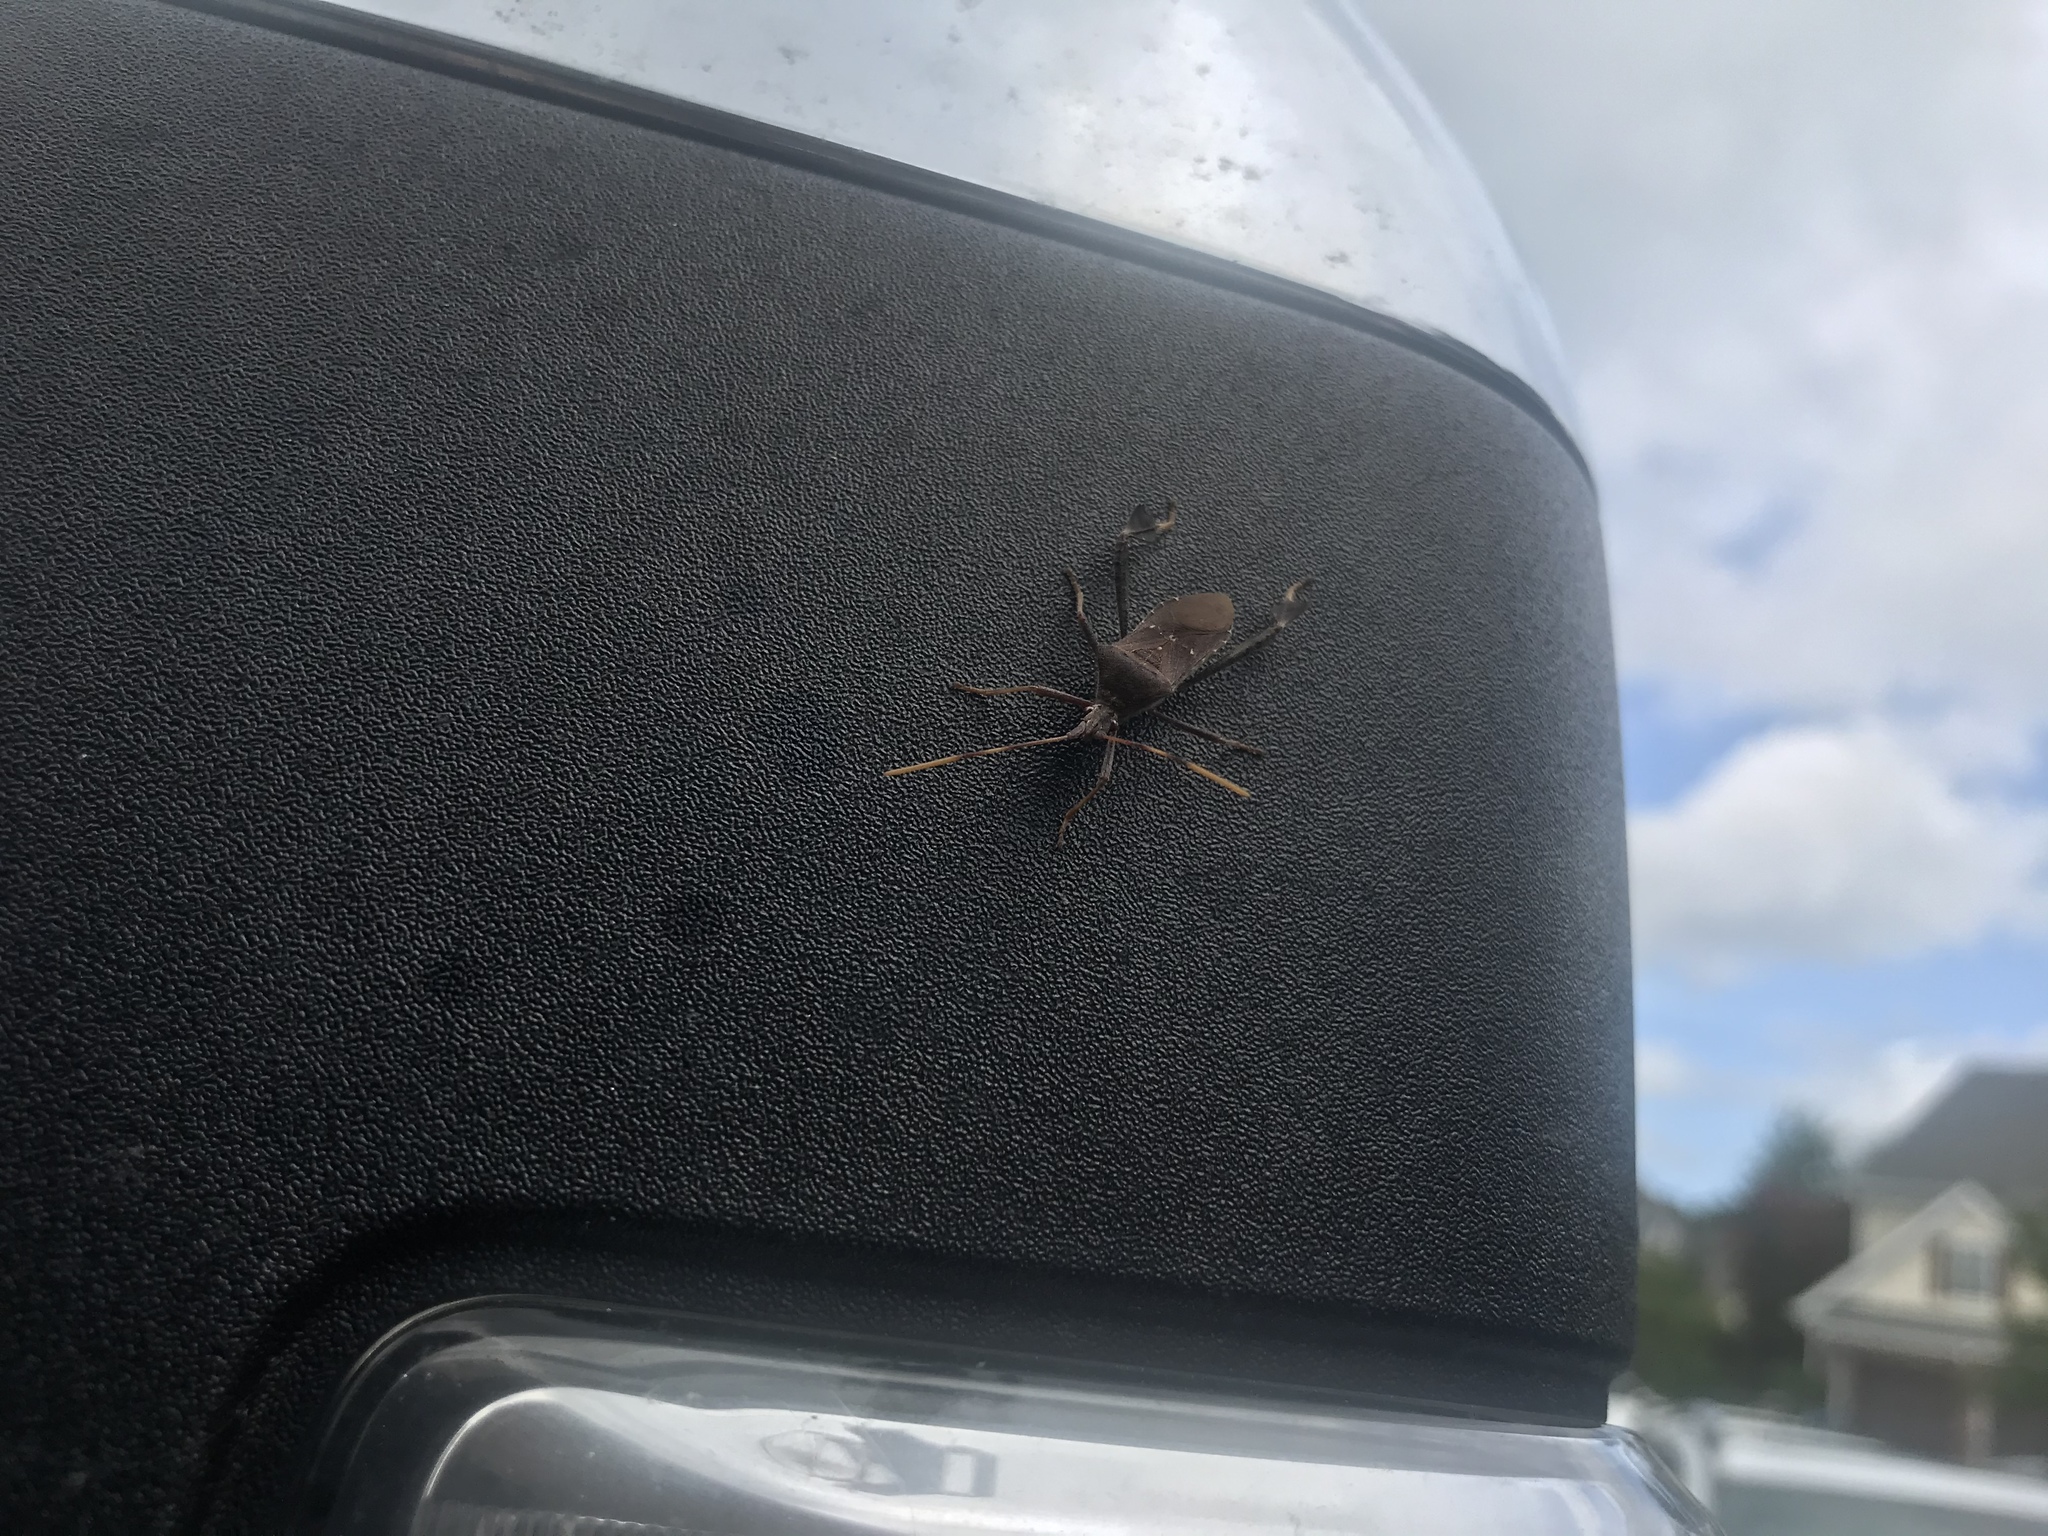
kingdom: Animalia
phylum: Arthropoda
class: Insecta
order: Hemiptera
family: Coreidae
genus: Leptoglossus
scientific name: Leptoglossus oppositus
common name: Northern leaf-footed bug
